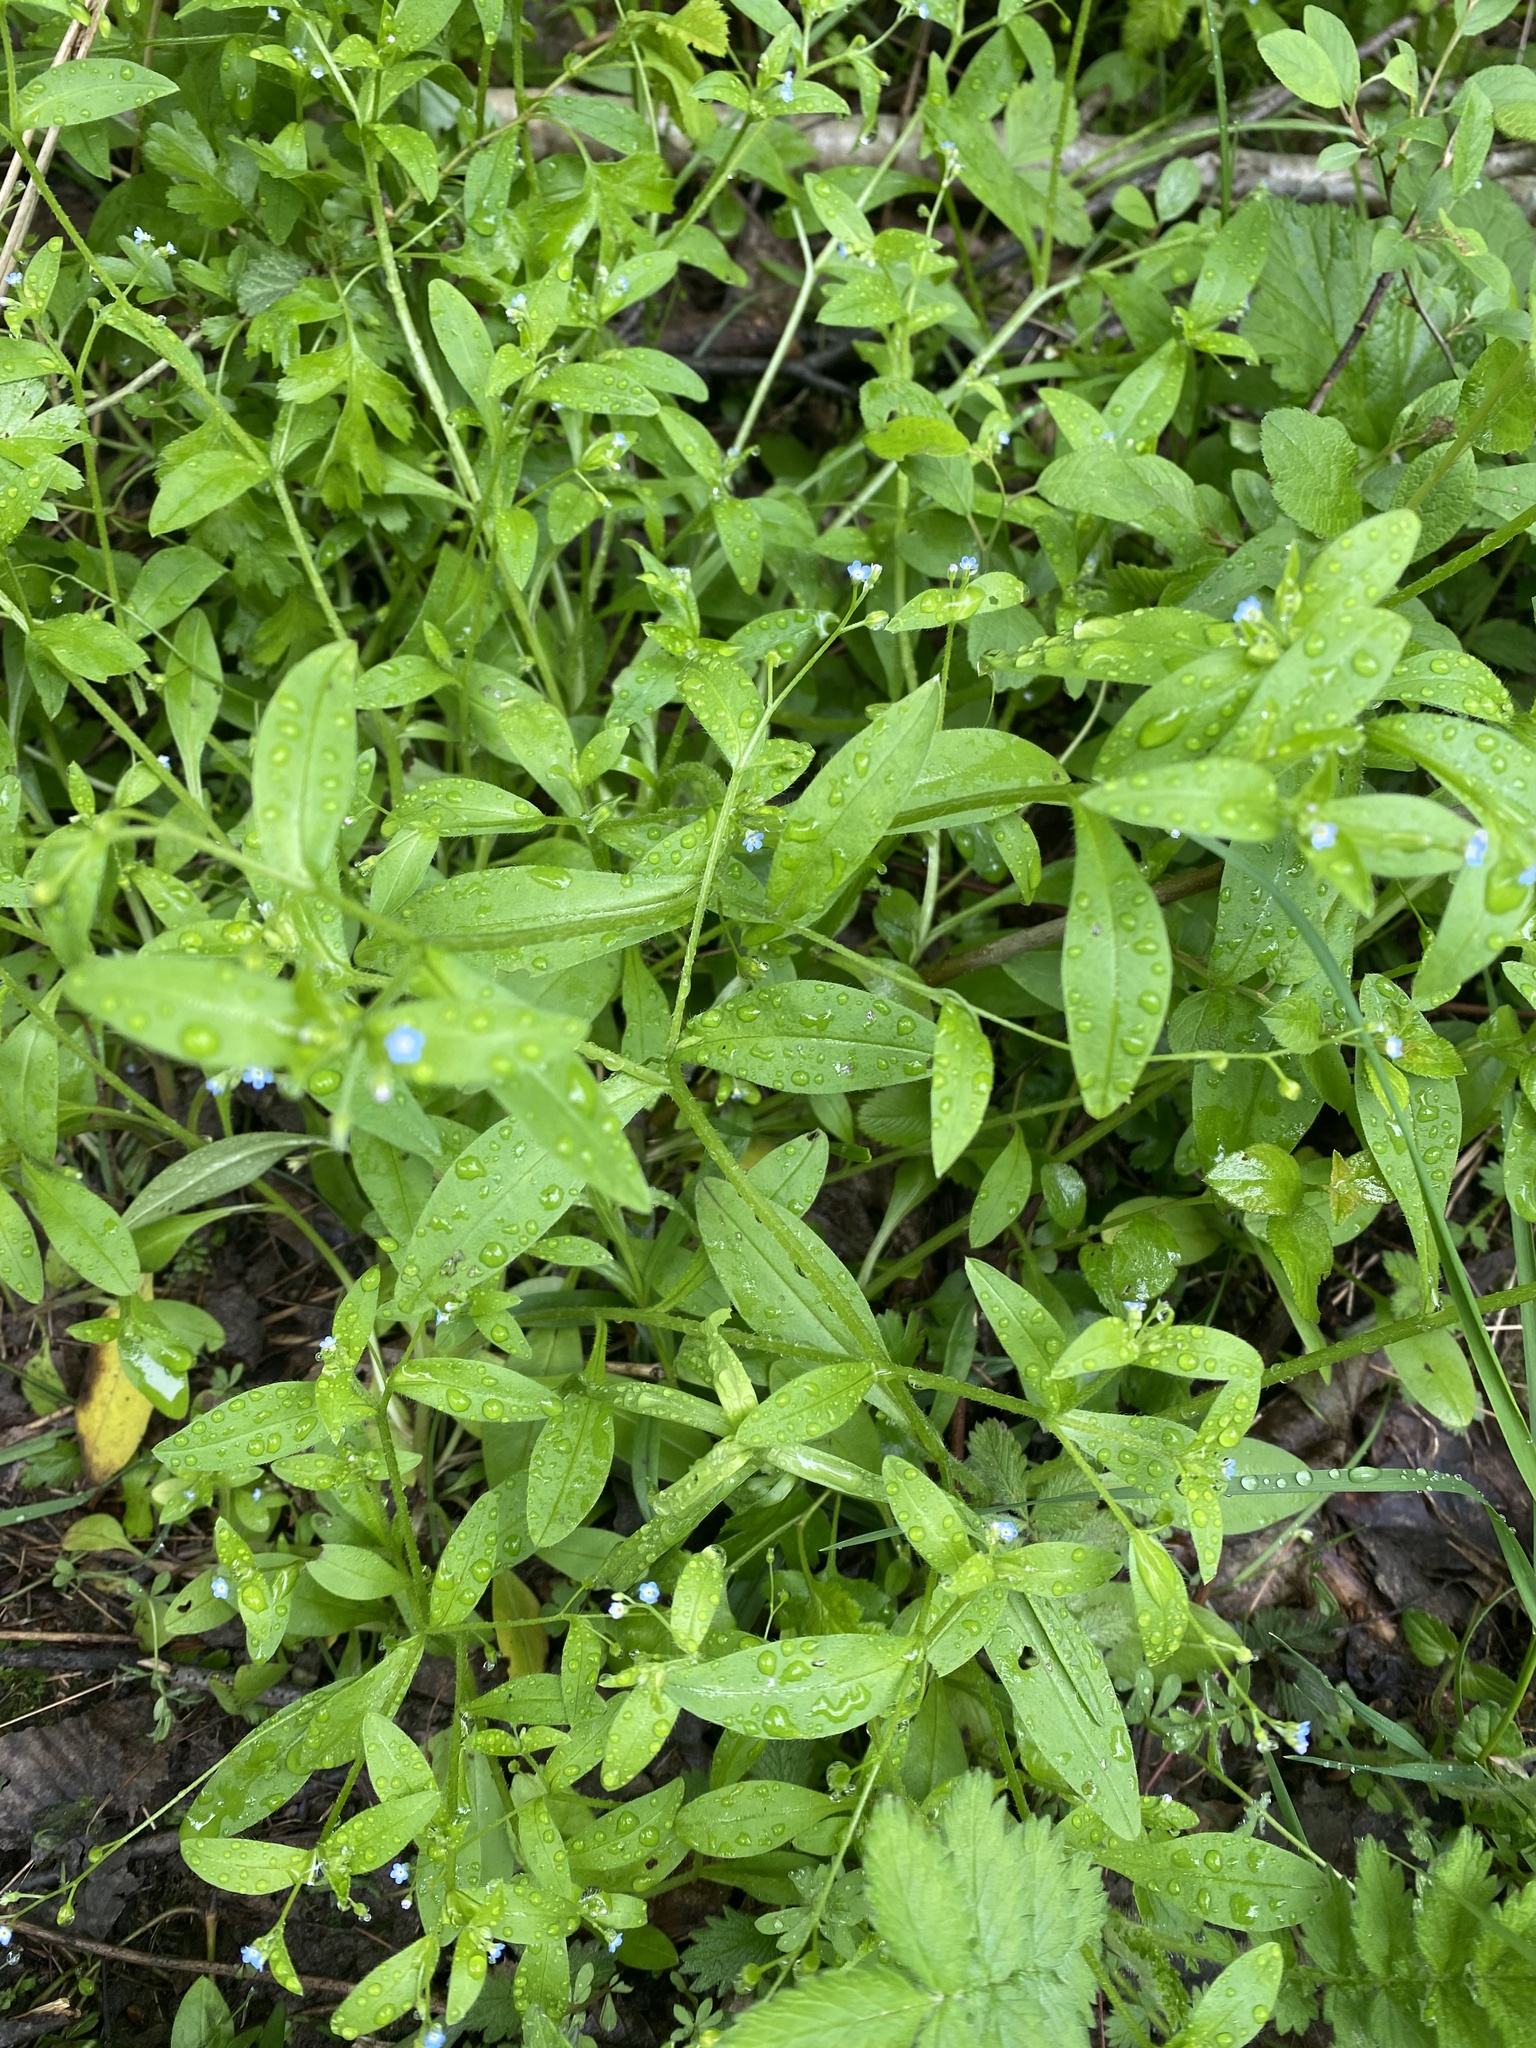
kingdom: Plantae
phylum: Tracheophyta
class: Magnoliopsida
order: Boraginales
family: Boraginaceae
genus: Myosotis
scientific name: Myosotis sparsiflora
